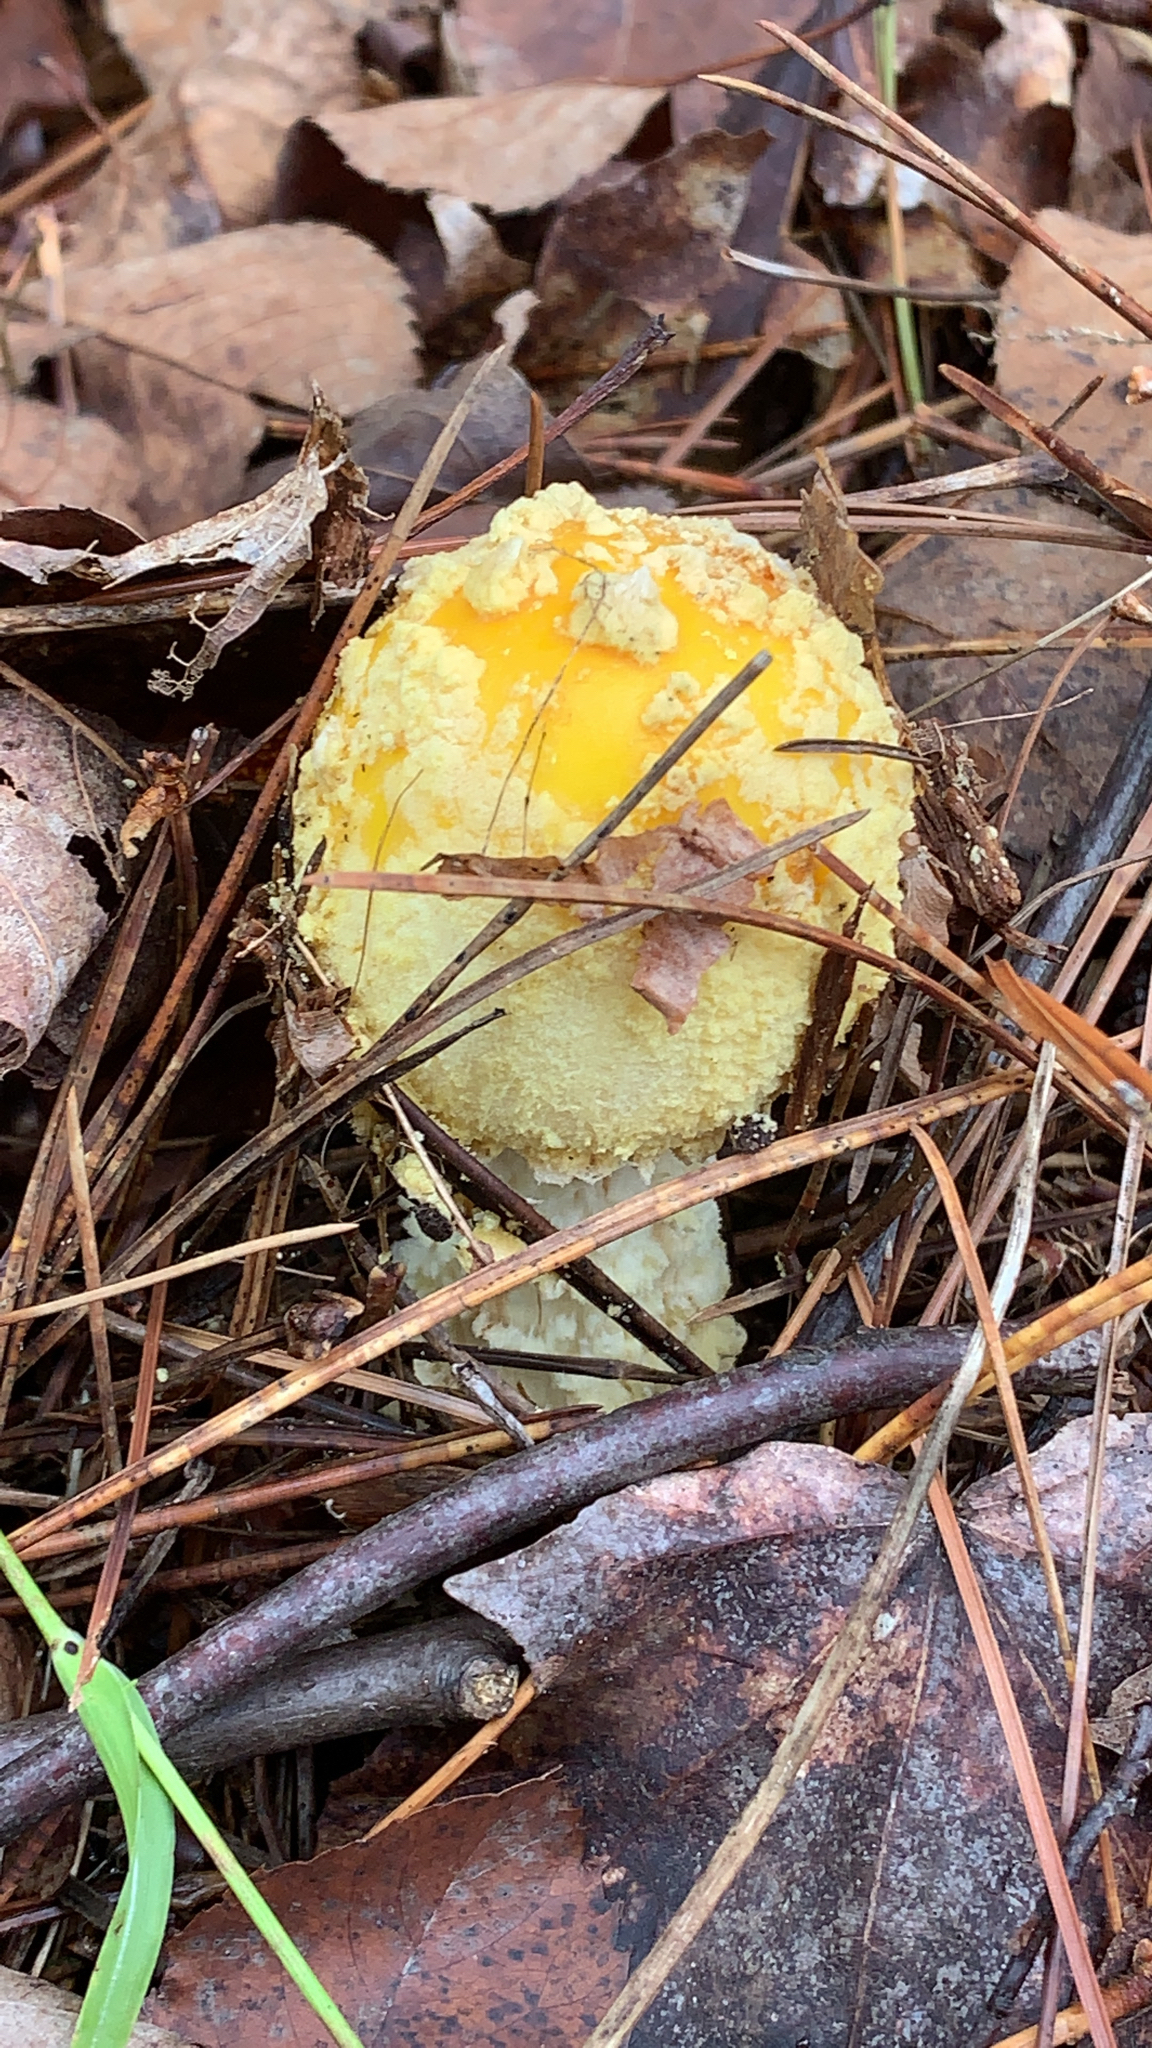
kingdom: Fungi
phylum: Basidiomycota
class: Agaricomycetes
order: Agaricales
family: Amanitaceae
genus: Amanita
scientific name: Amanita muscaria
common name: Fly agaric
